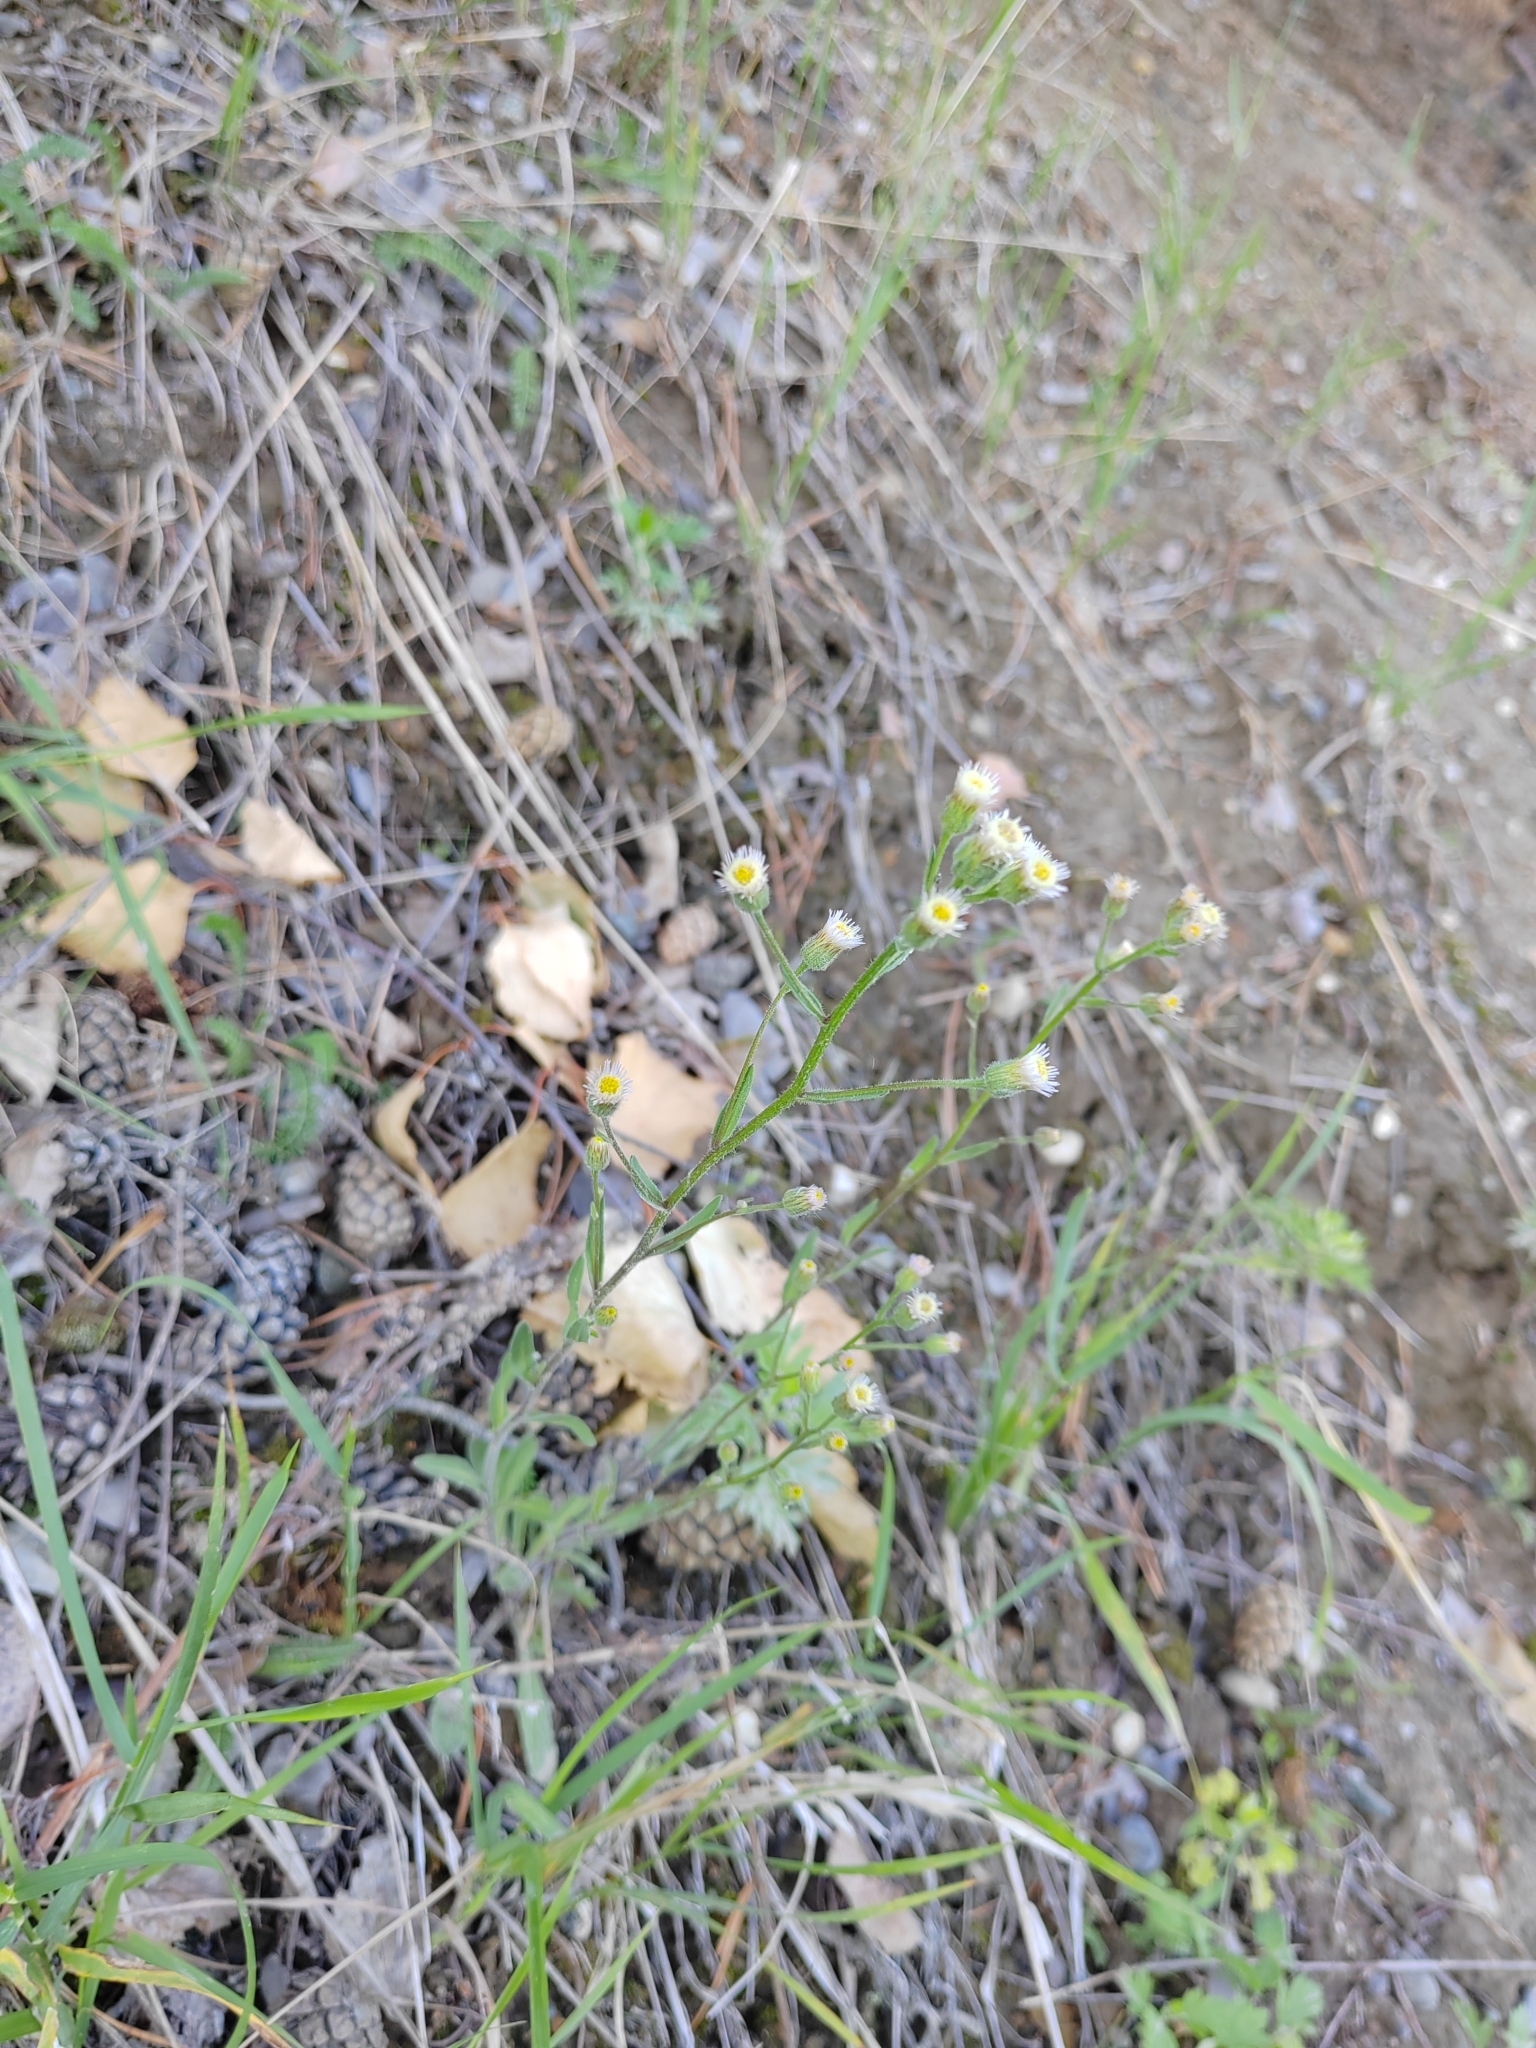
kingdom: Plantae
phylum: Tracheophyta
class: Magnoliopsida
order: Asterales
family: Asteraceae
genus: Erigeron
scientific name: Erigeron acris
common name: Blue fleabane
